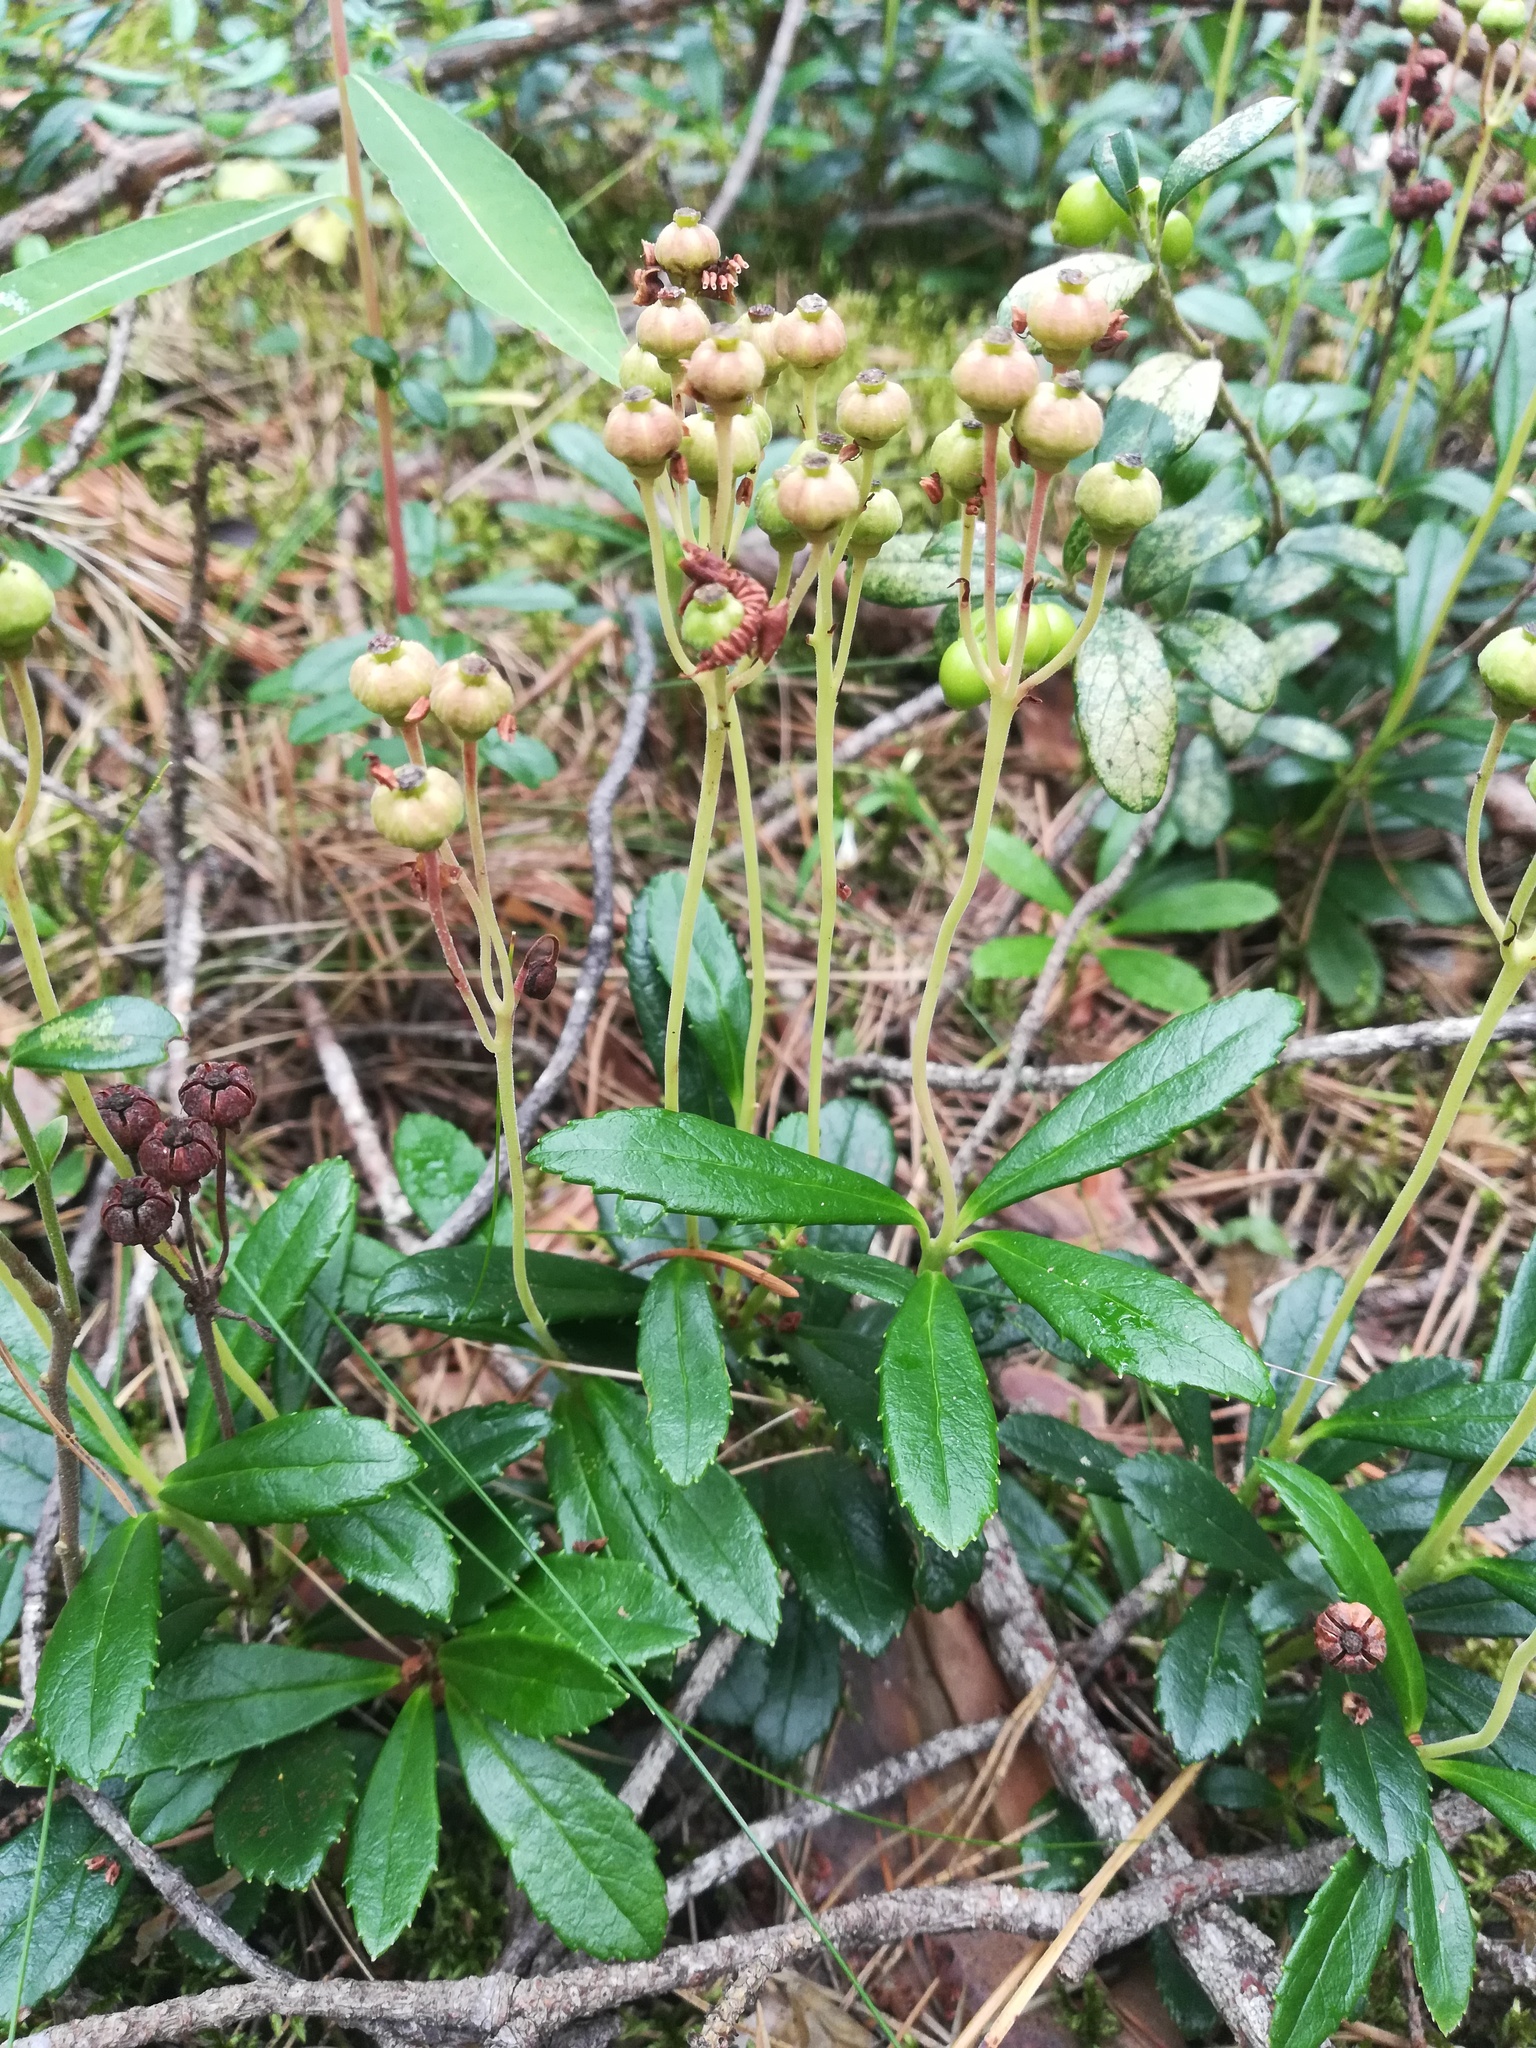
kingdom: Plantae
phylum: Tracheophyta
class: Magnoliopsida
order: Ericales
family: Ericaceae
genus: Chimaphila
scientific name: Chimaphila umbellata
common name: Pipsissewa
